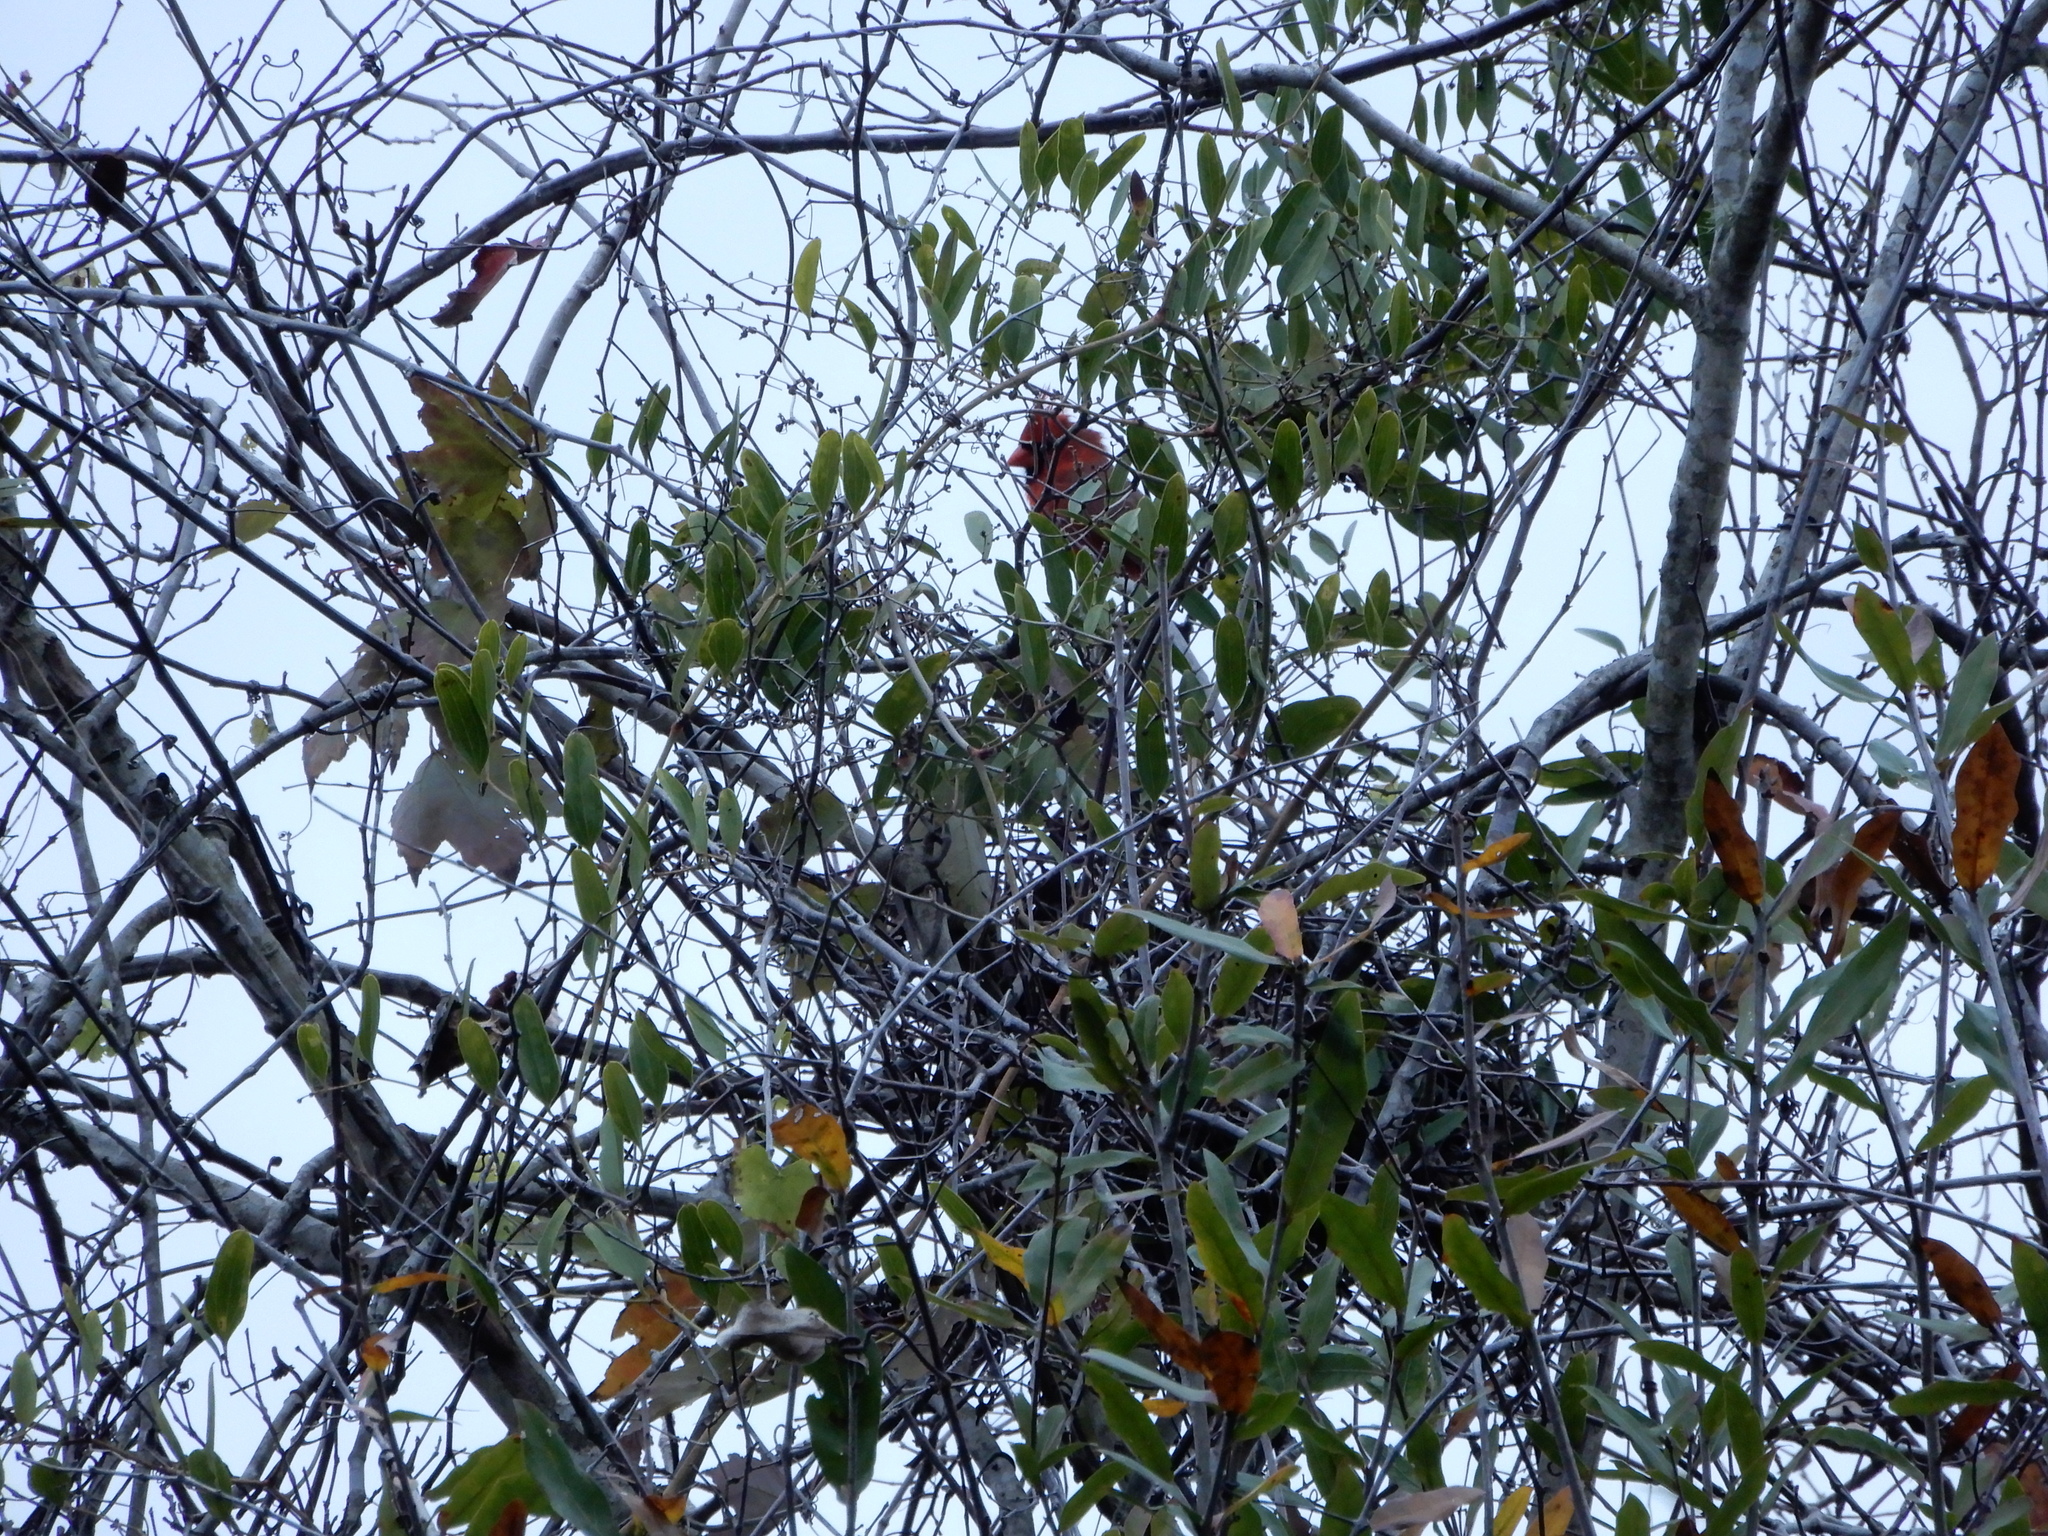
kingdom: Animalia
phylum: Chordata
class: Aves
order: Passeriformes
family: Cardinalidae
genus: Cardinalis
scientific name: Cardinalis cardinalis
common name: Northern cardinal
